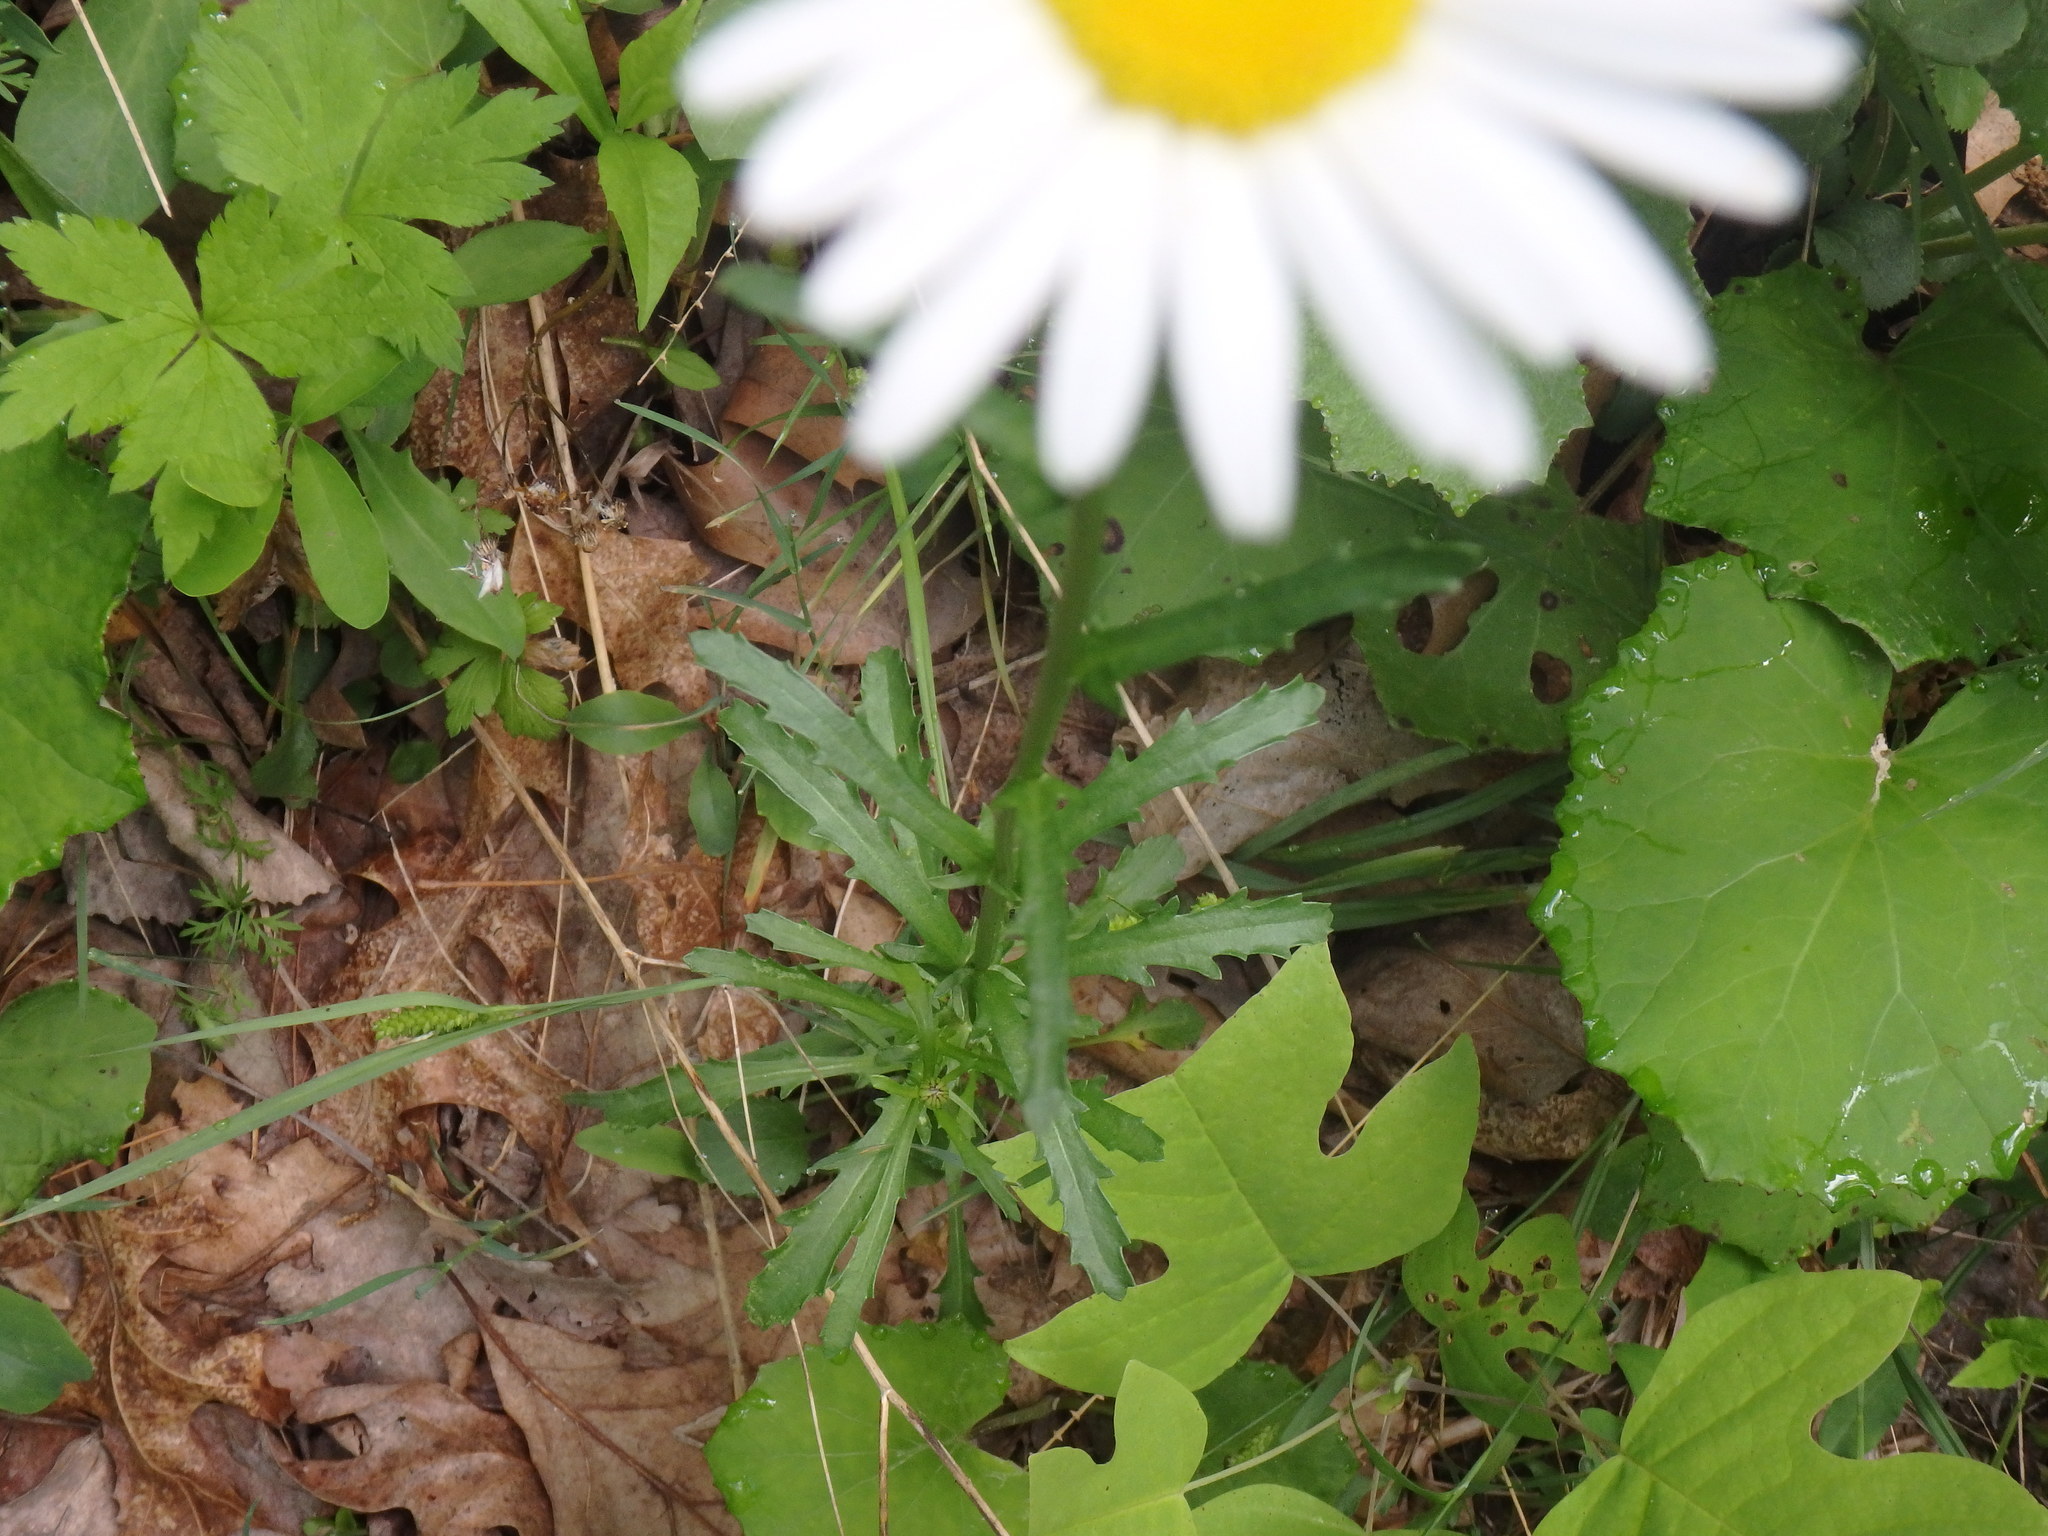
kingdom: Plantae
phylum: Tracheophyta
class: Magnoliopsida
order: Asterales
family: Asteraceae
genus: Leucanthemum
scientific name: Leucanthemum vulgare
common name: Oxeye daisy
